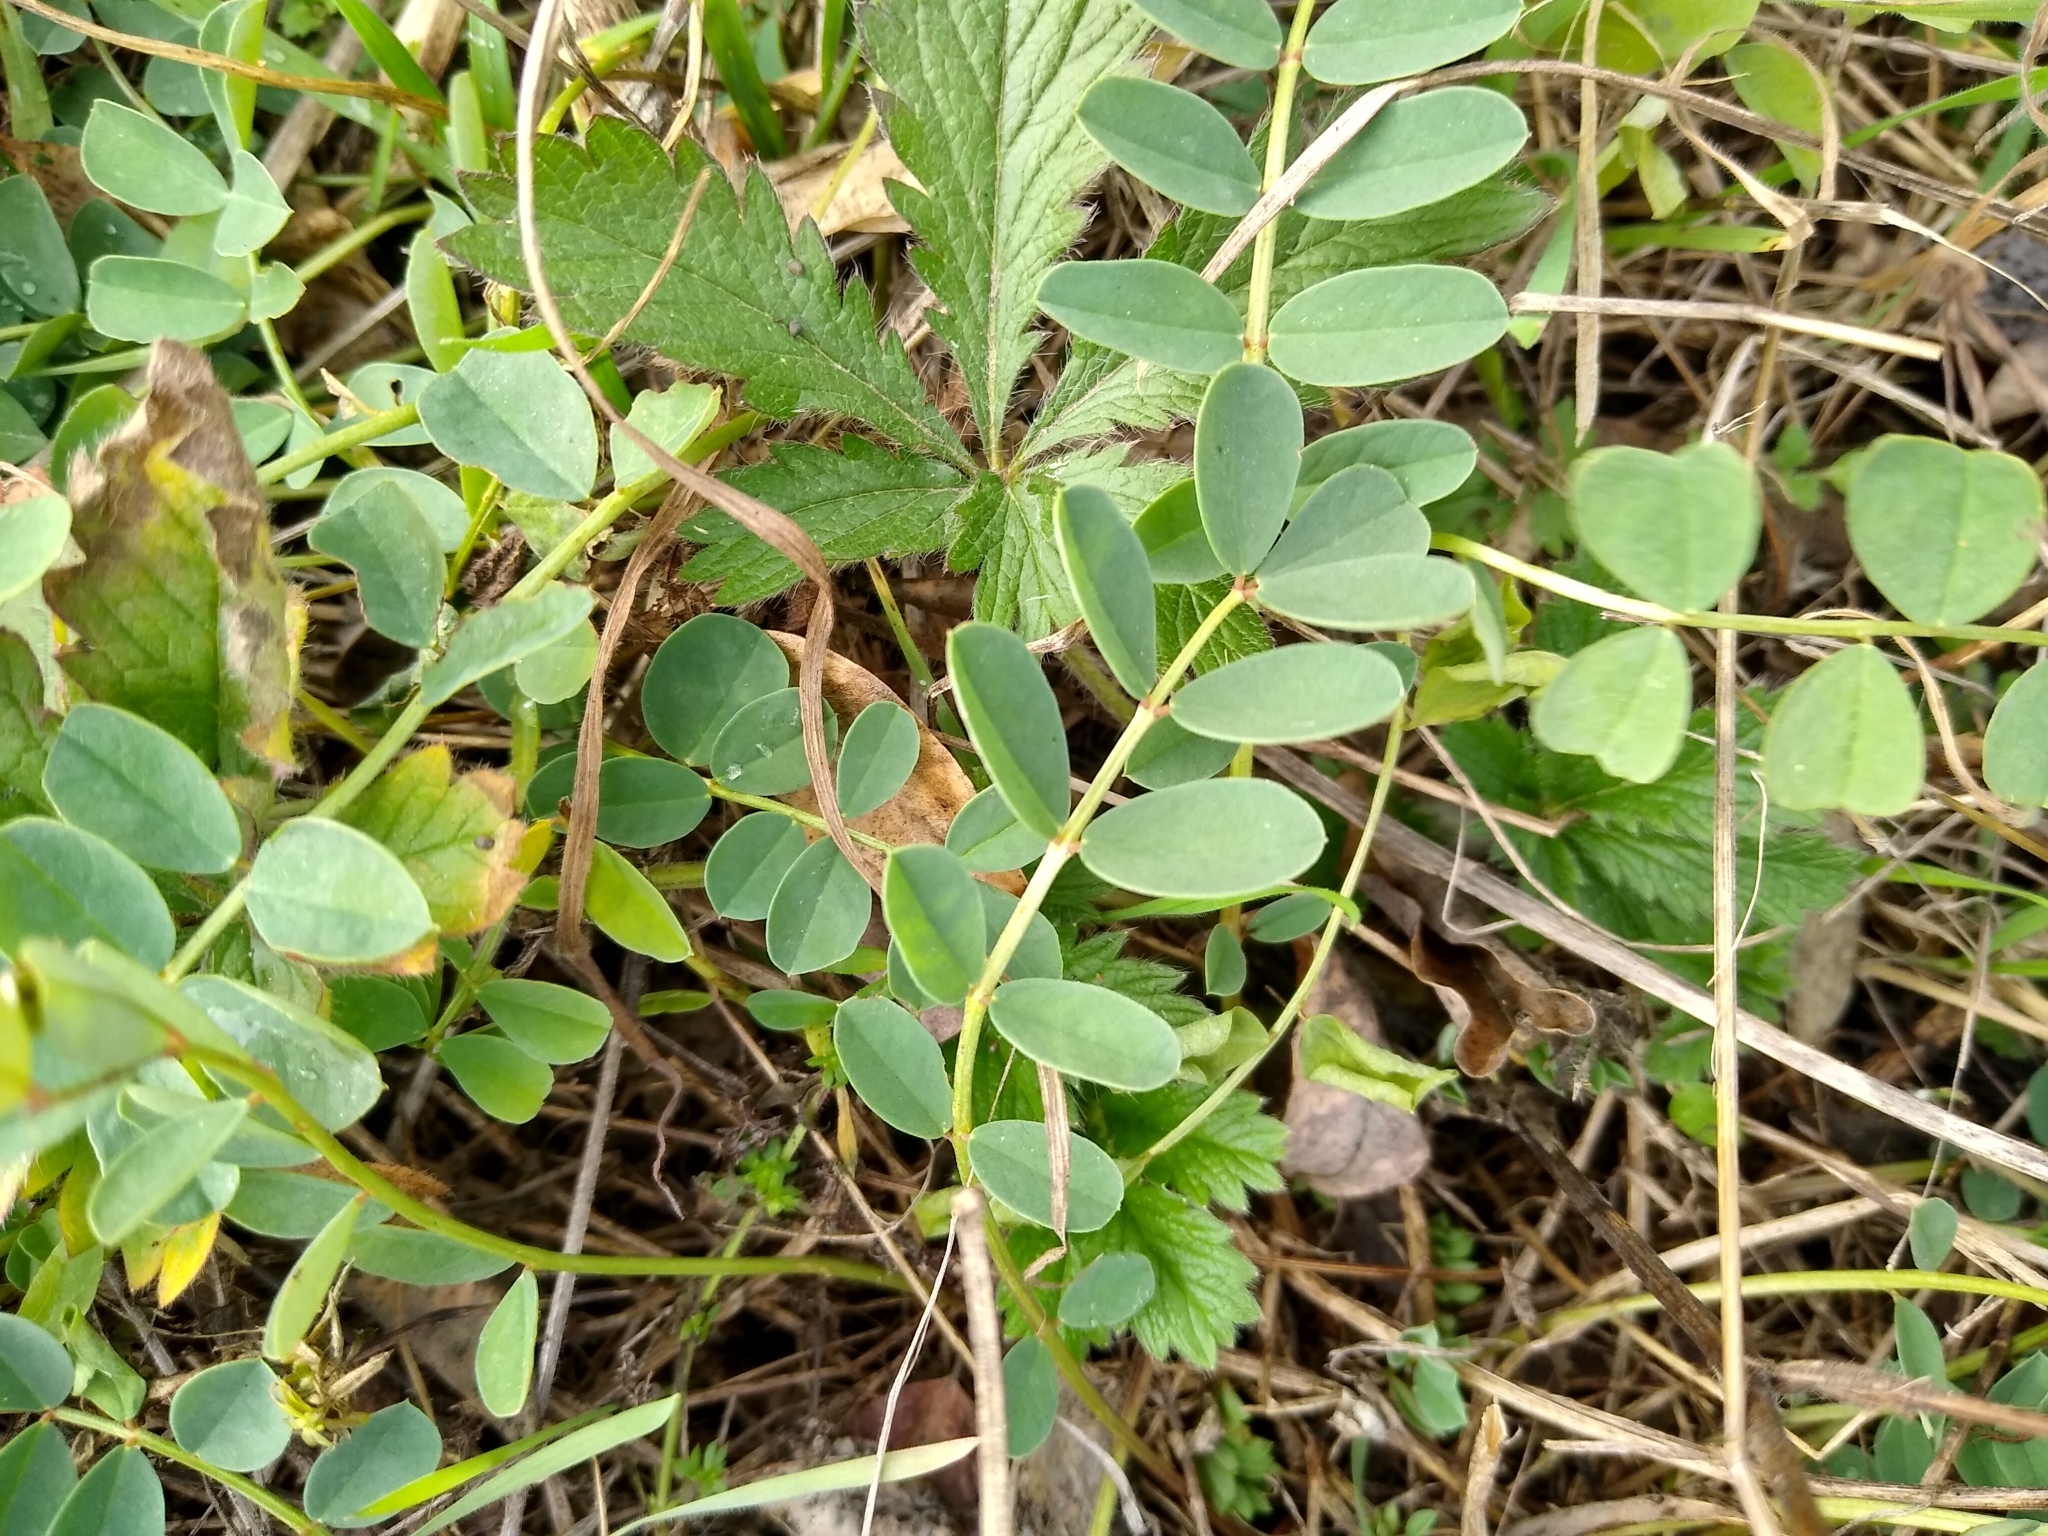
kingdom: Plantae
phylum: Tracheophyta
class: Magnoliopsida
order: Fabales
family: Fabaceae
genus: Coronilla
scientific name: Coronilla varia
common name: Crownvetch
